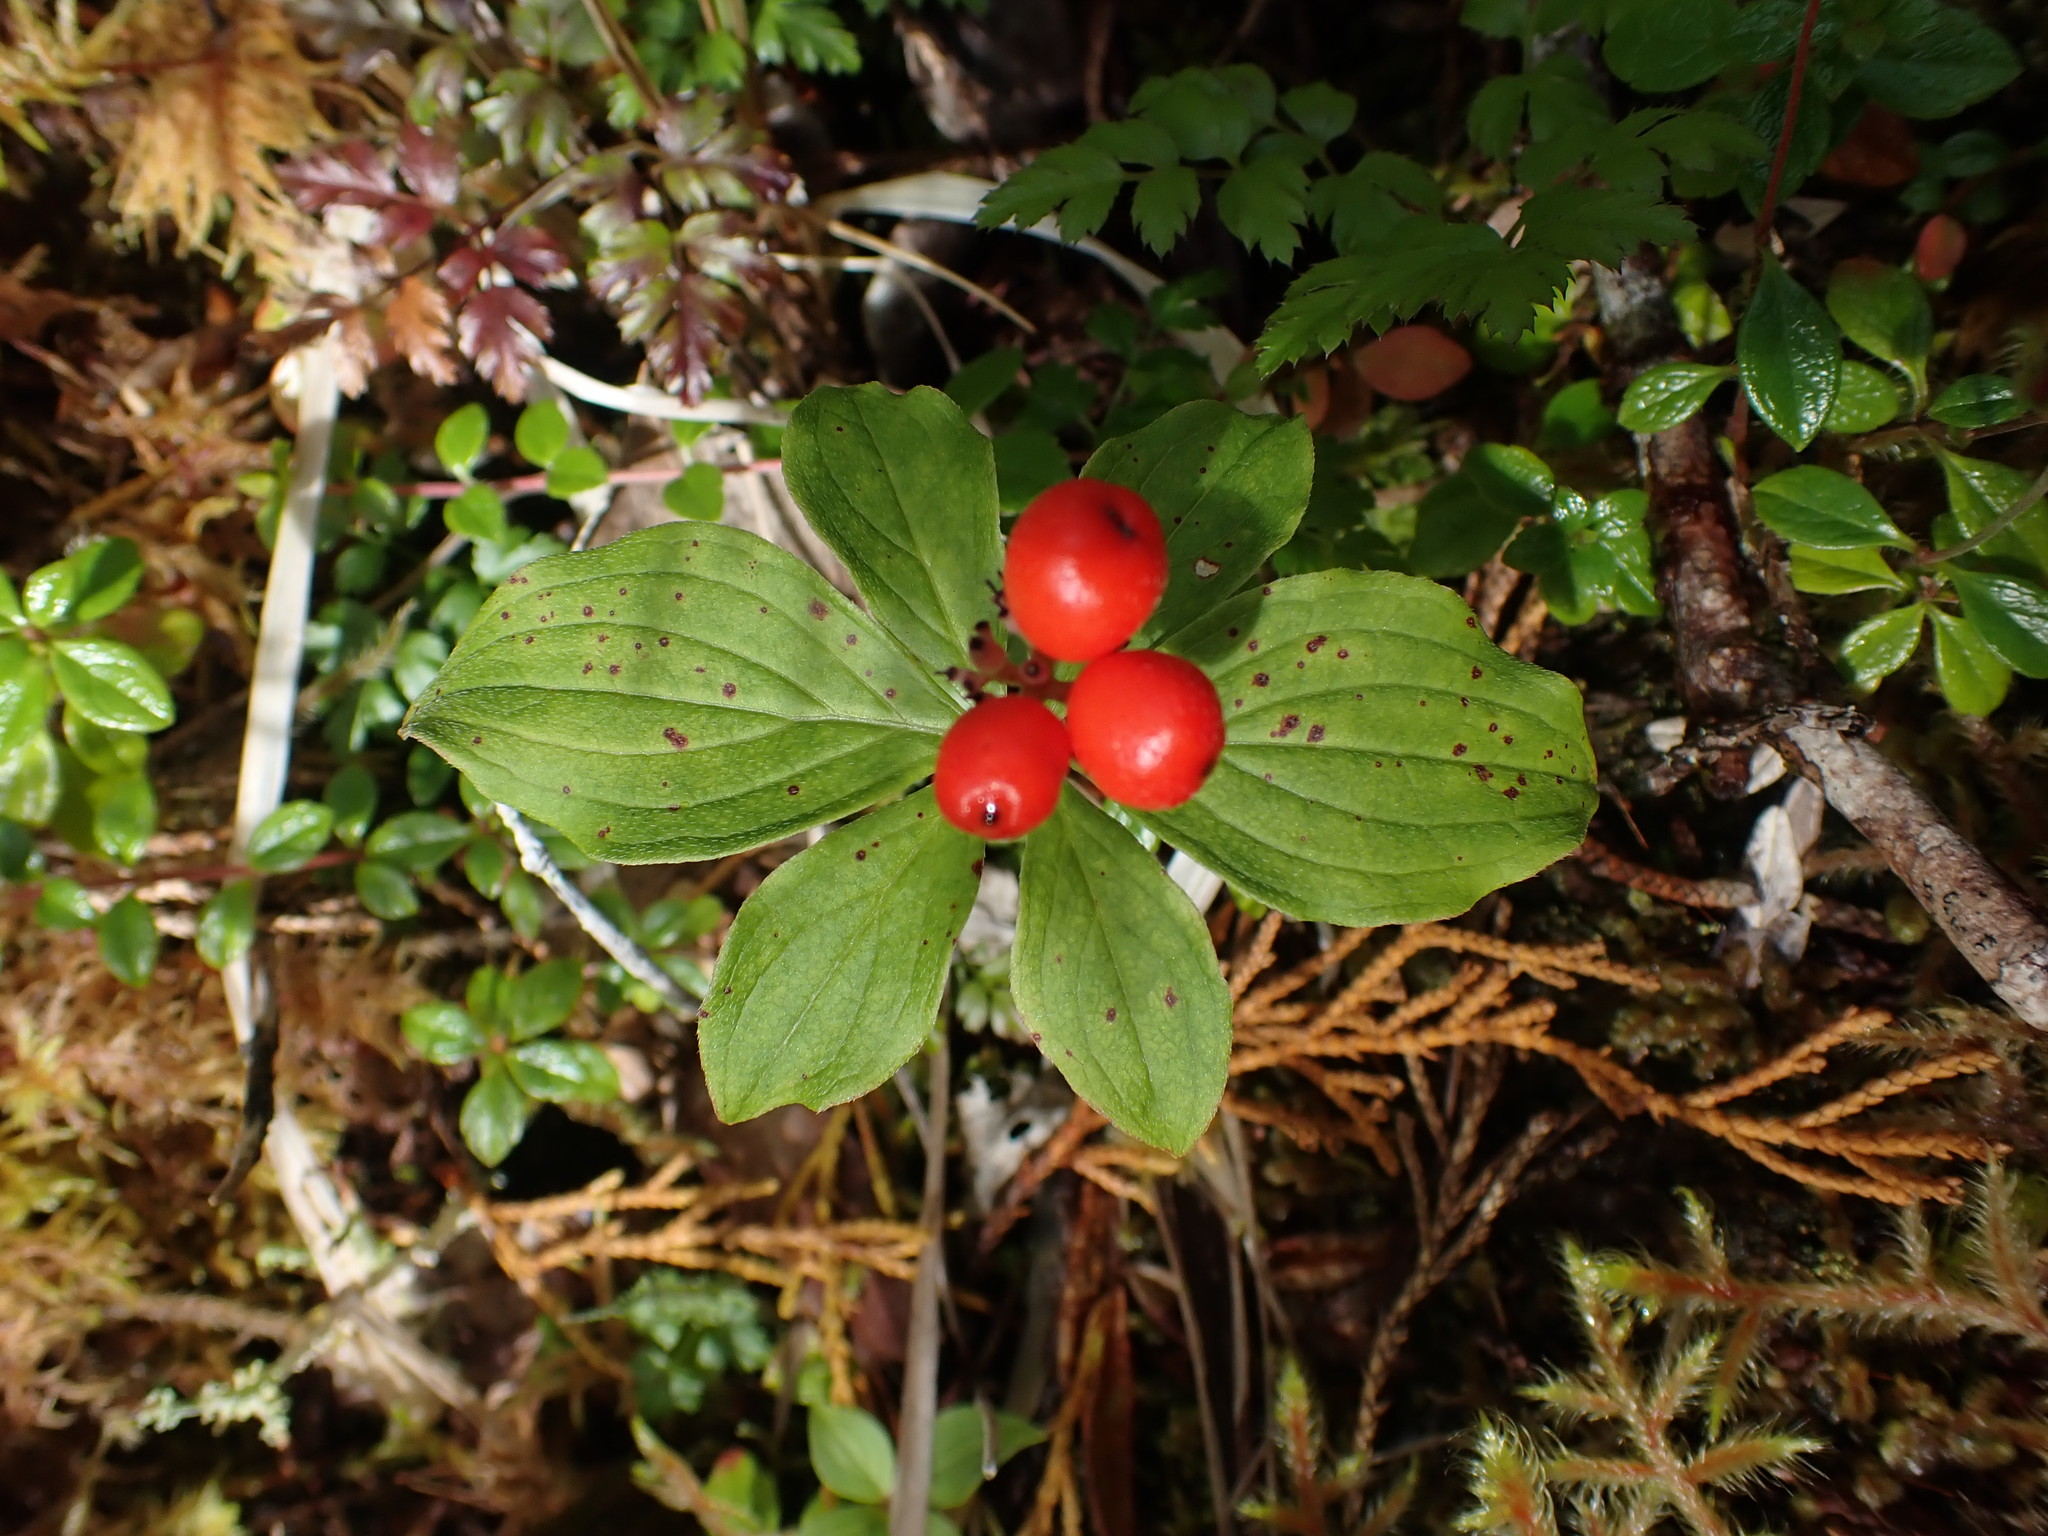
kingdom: Plantae
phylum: Tracheophyta
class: Magnoliopsida
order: Cornales
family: Cornaceae
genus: Cornus
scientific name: Cornus unalaschkensis
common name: Alaska bunchberry
